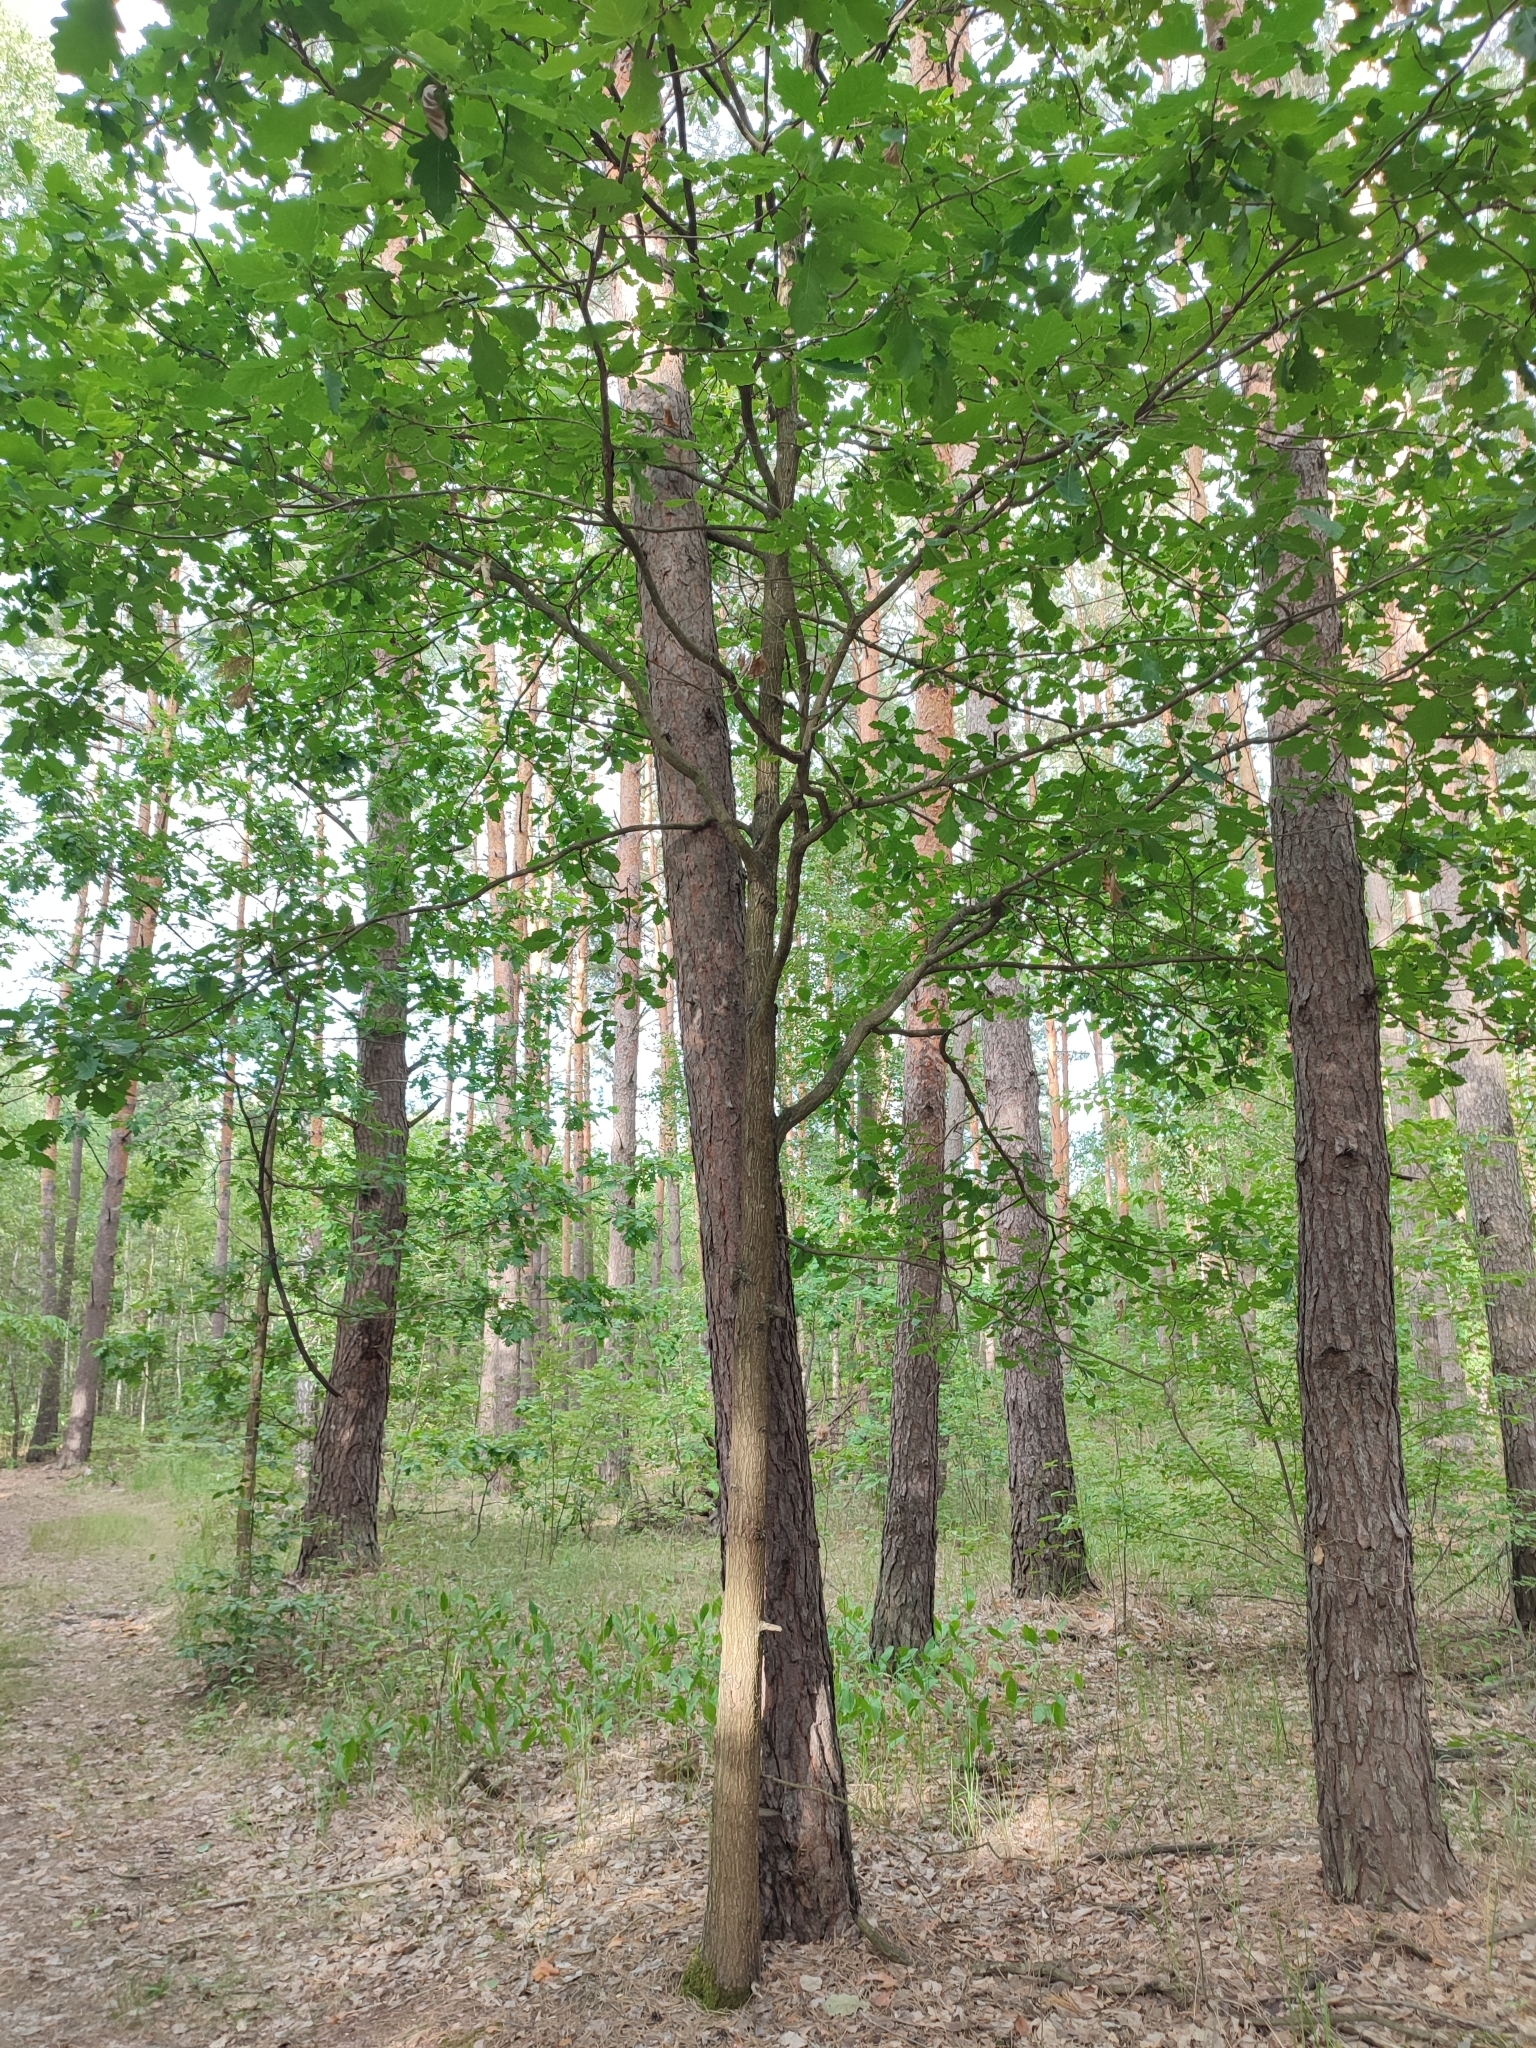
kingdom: Plantae
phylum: Tracheophyta
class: Magnoliopsida
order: Fagales
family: Fagaceae
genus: Quercus
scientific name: Quercus robur
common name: Pedunculate oak
